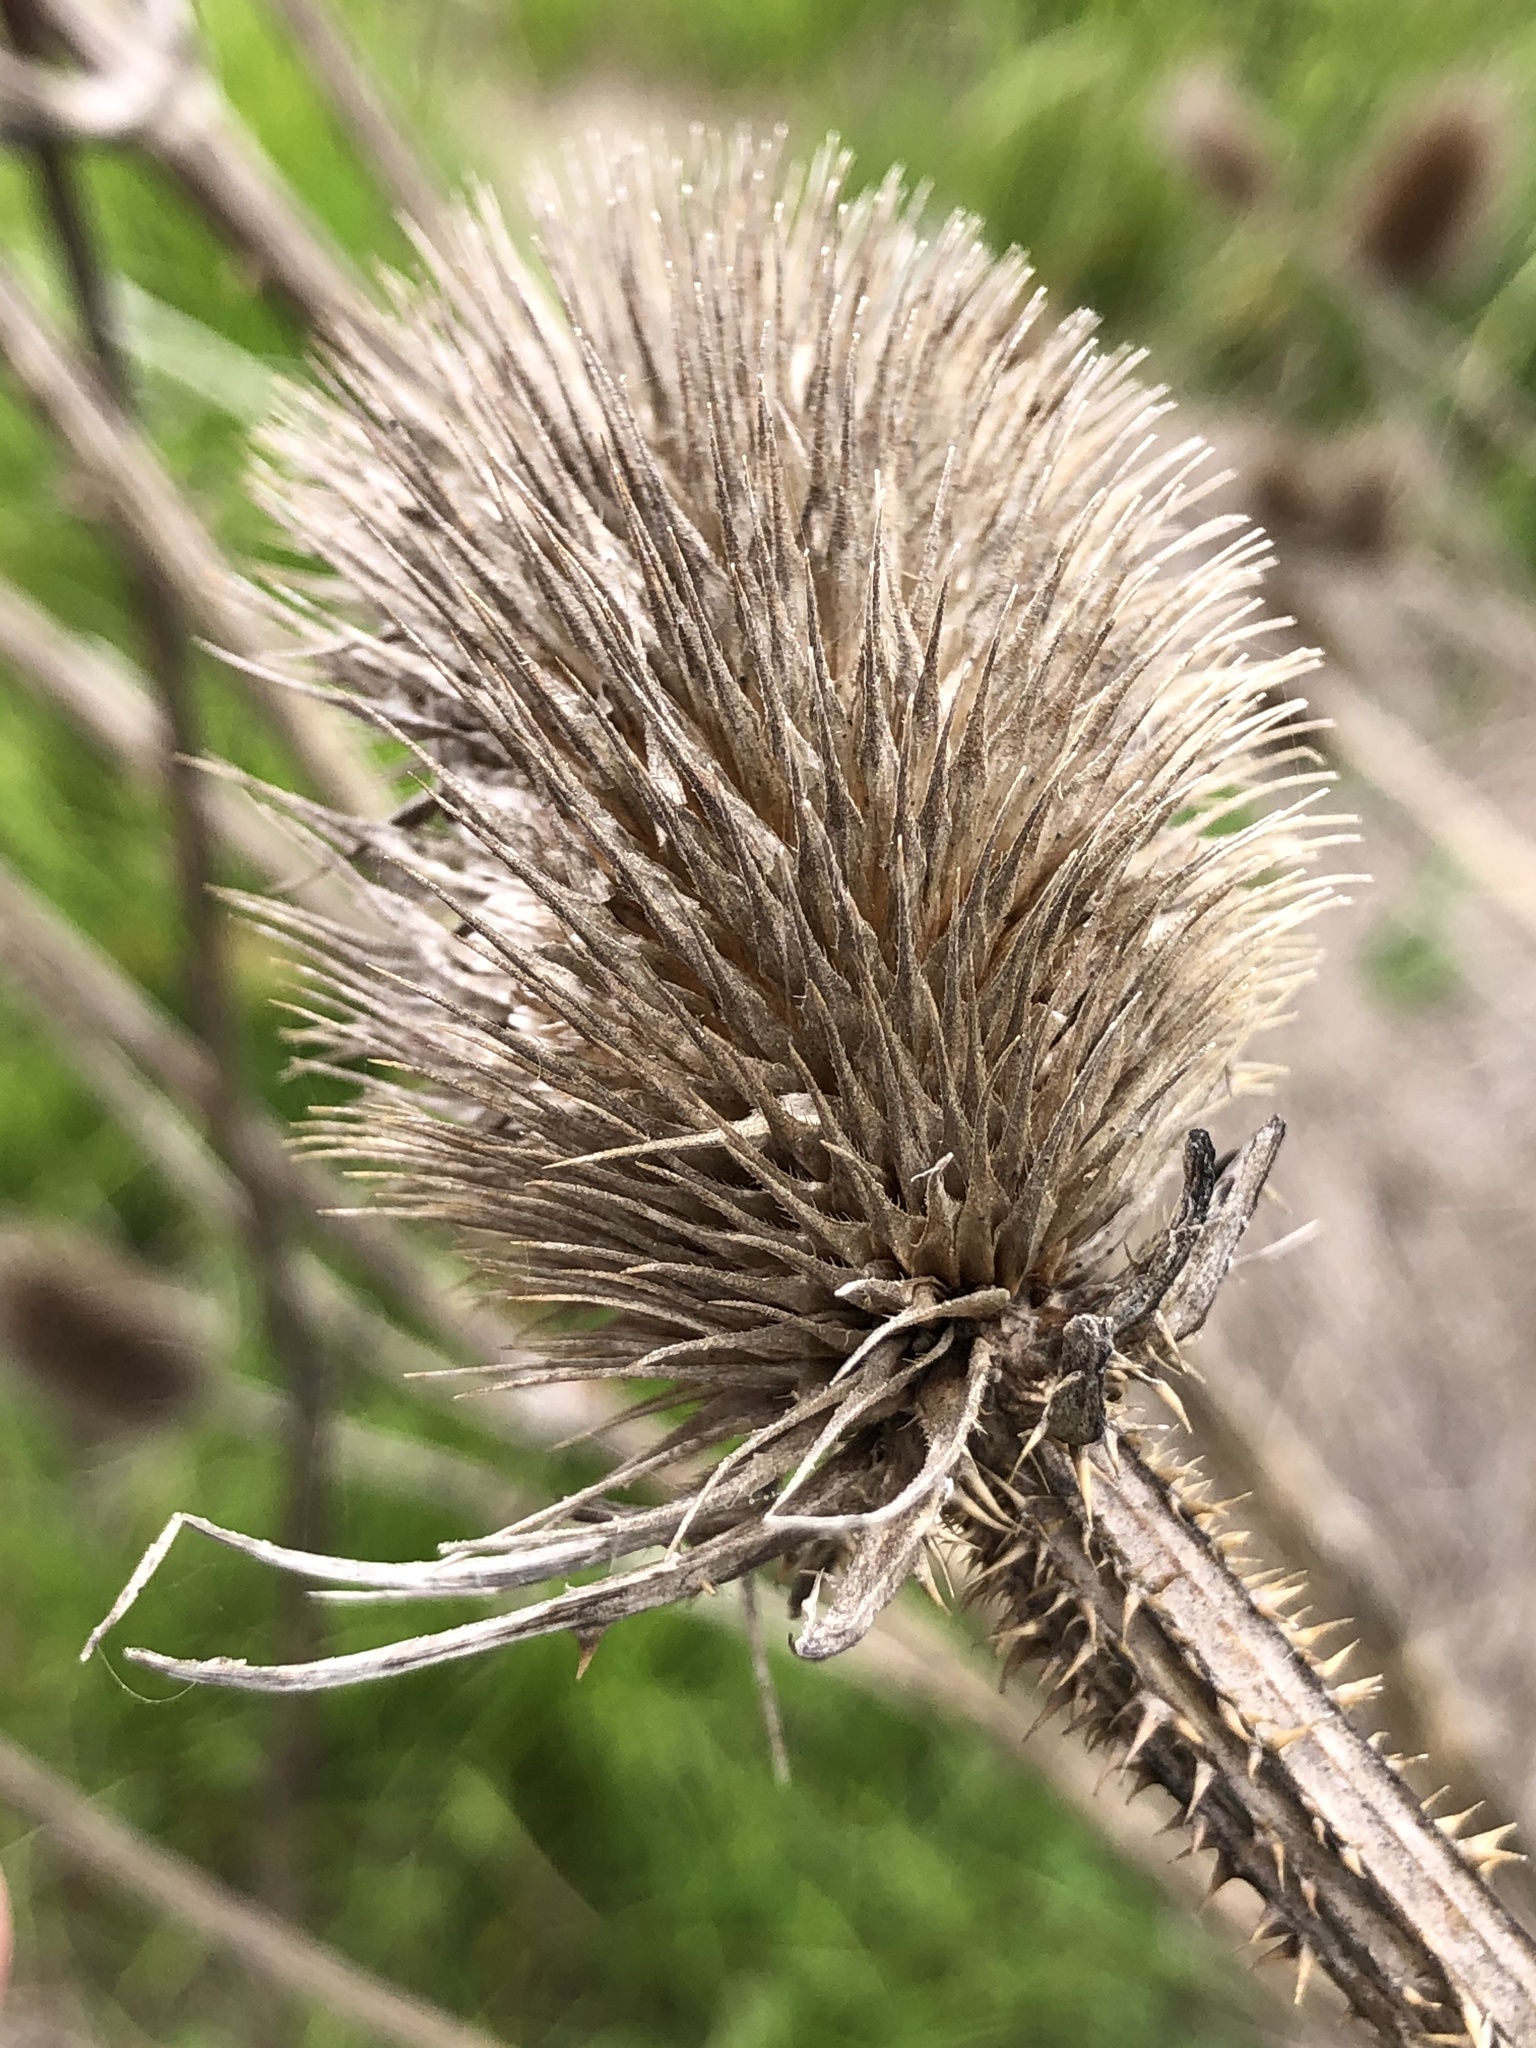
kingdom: Plantae
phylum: Tracheophyta
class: Magnoliopsida
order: Dipsacales
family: Caprifoliaceae
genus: Dipsacus
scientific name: Dipsacus fullonum
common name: Teasel
